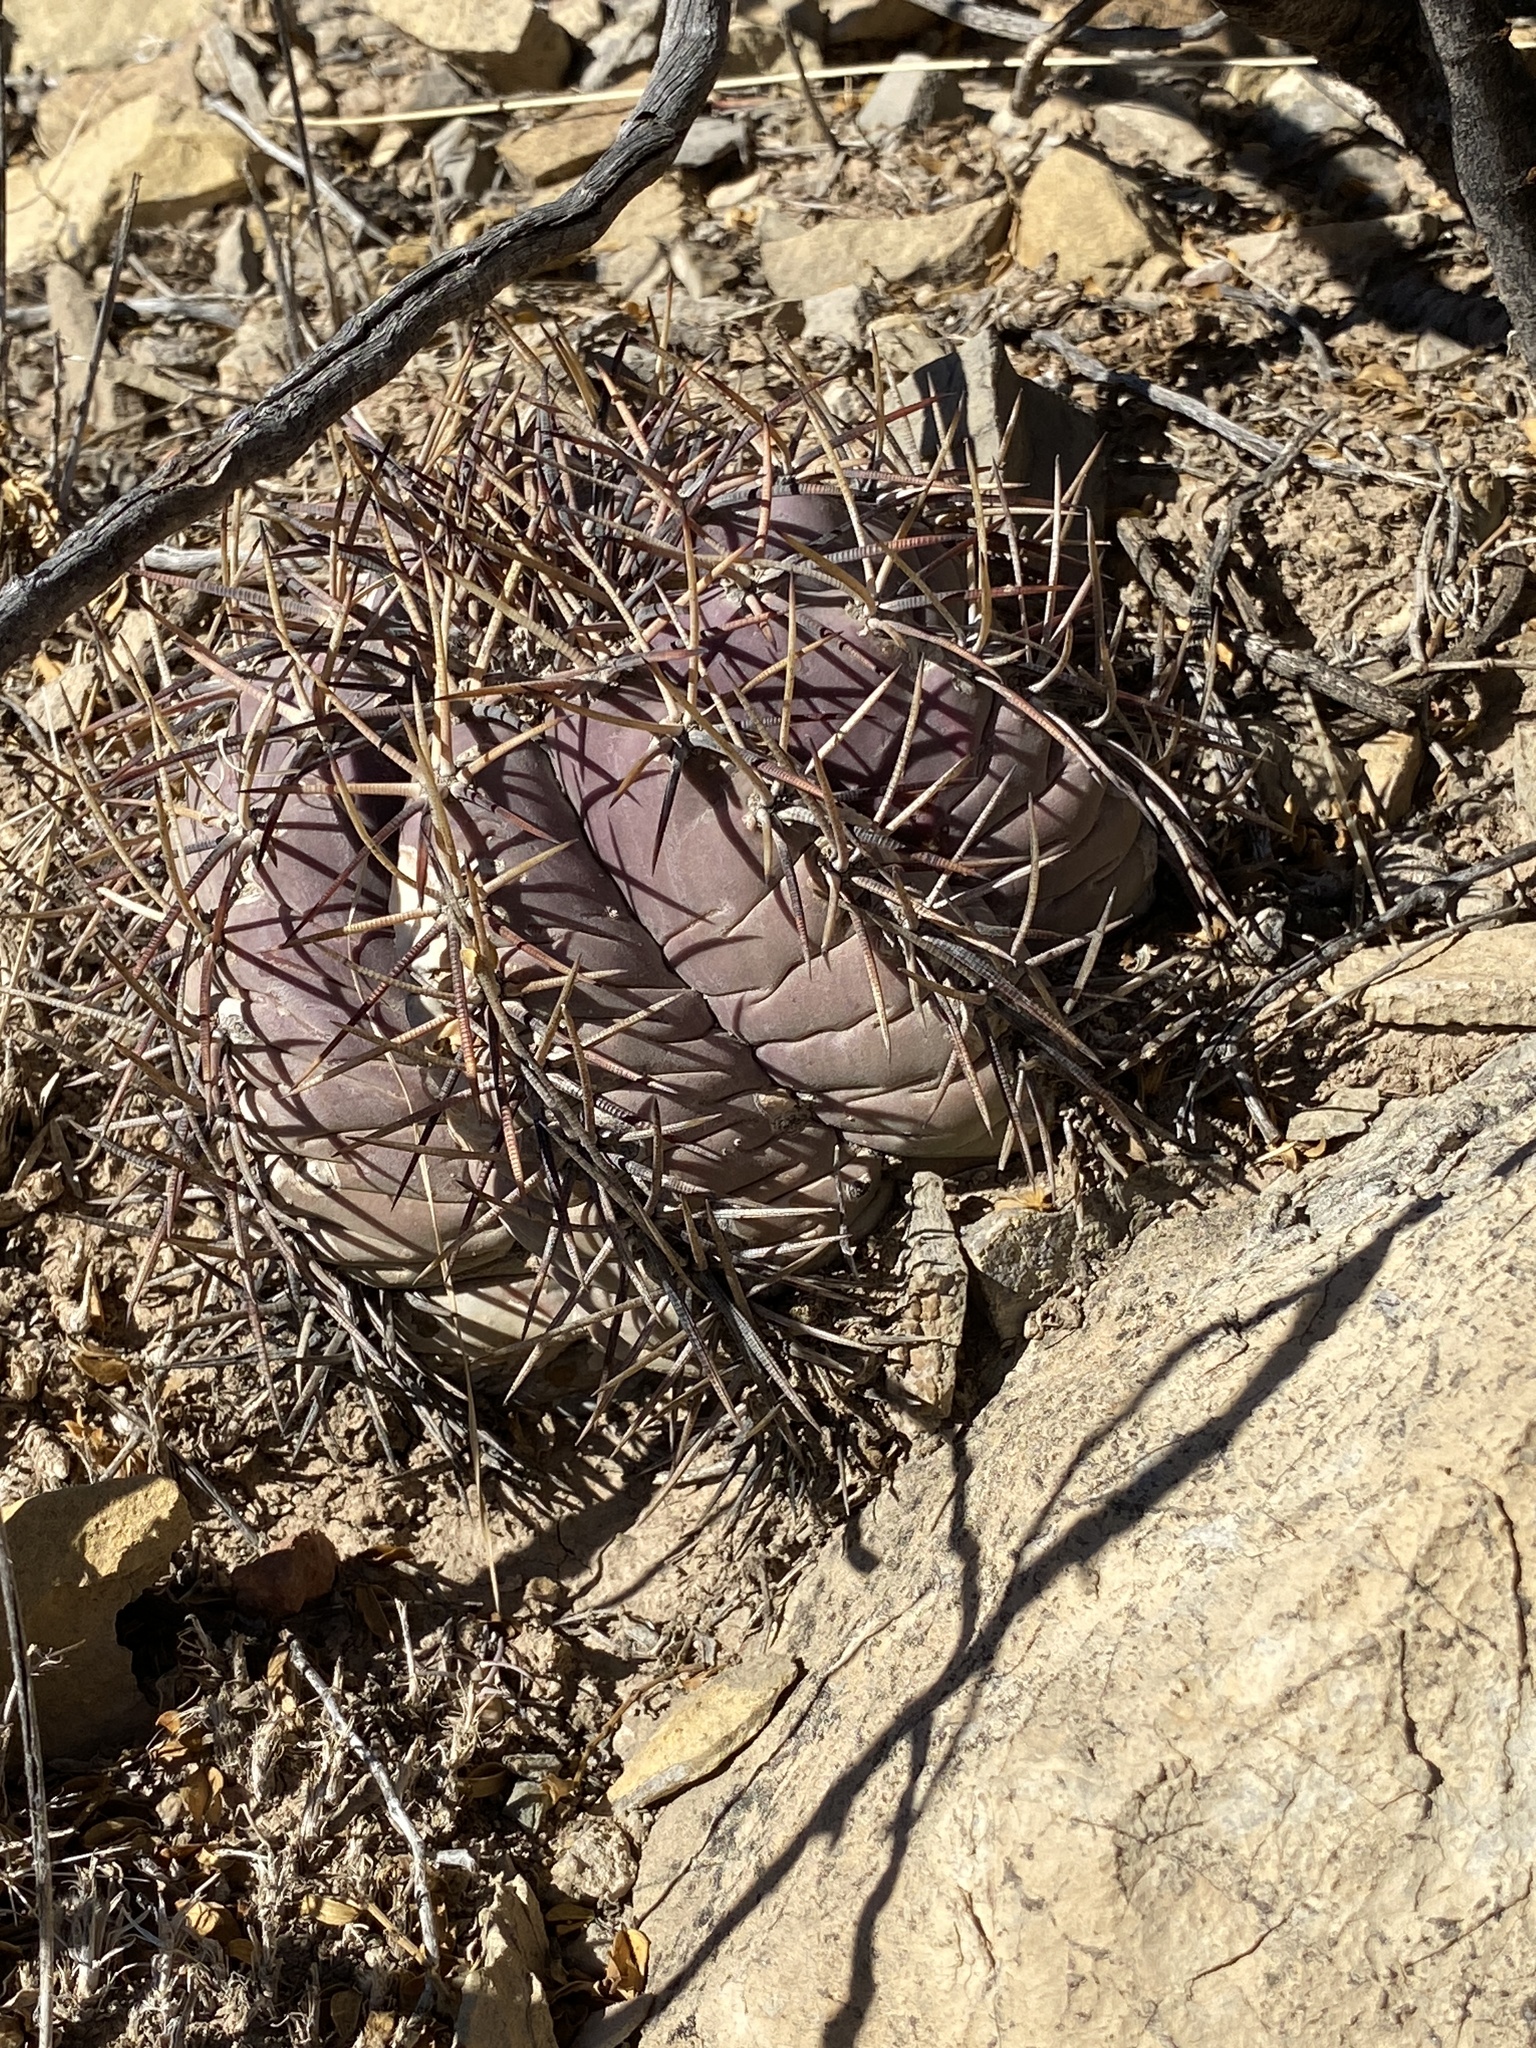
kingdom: Plantae
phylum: Tracheophyta
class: Magnoliopsida
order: Caryophyllales
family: Cactaceae
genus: Echinocactus
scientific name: Echinocactus horizonthalonius
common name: Devilshead
